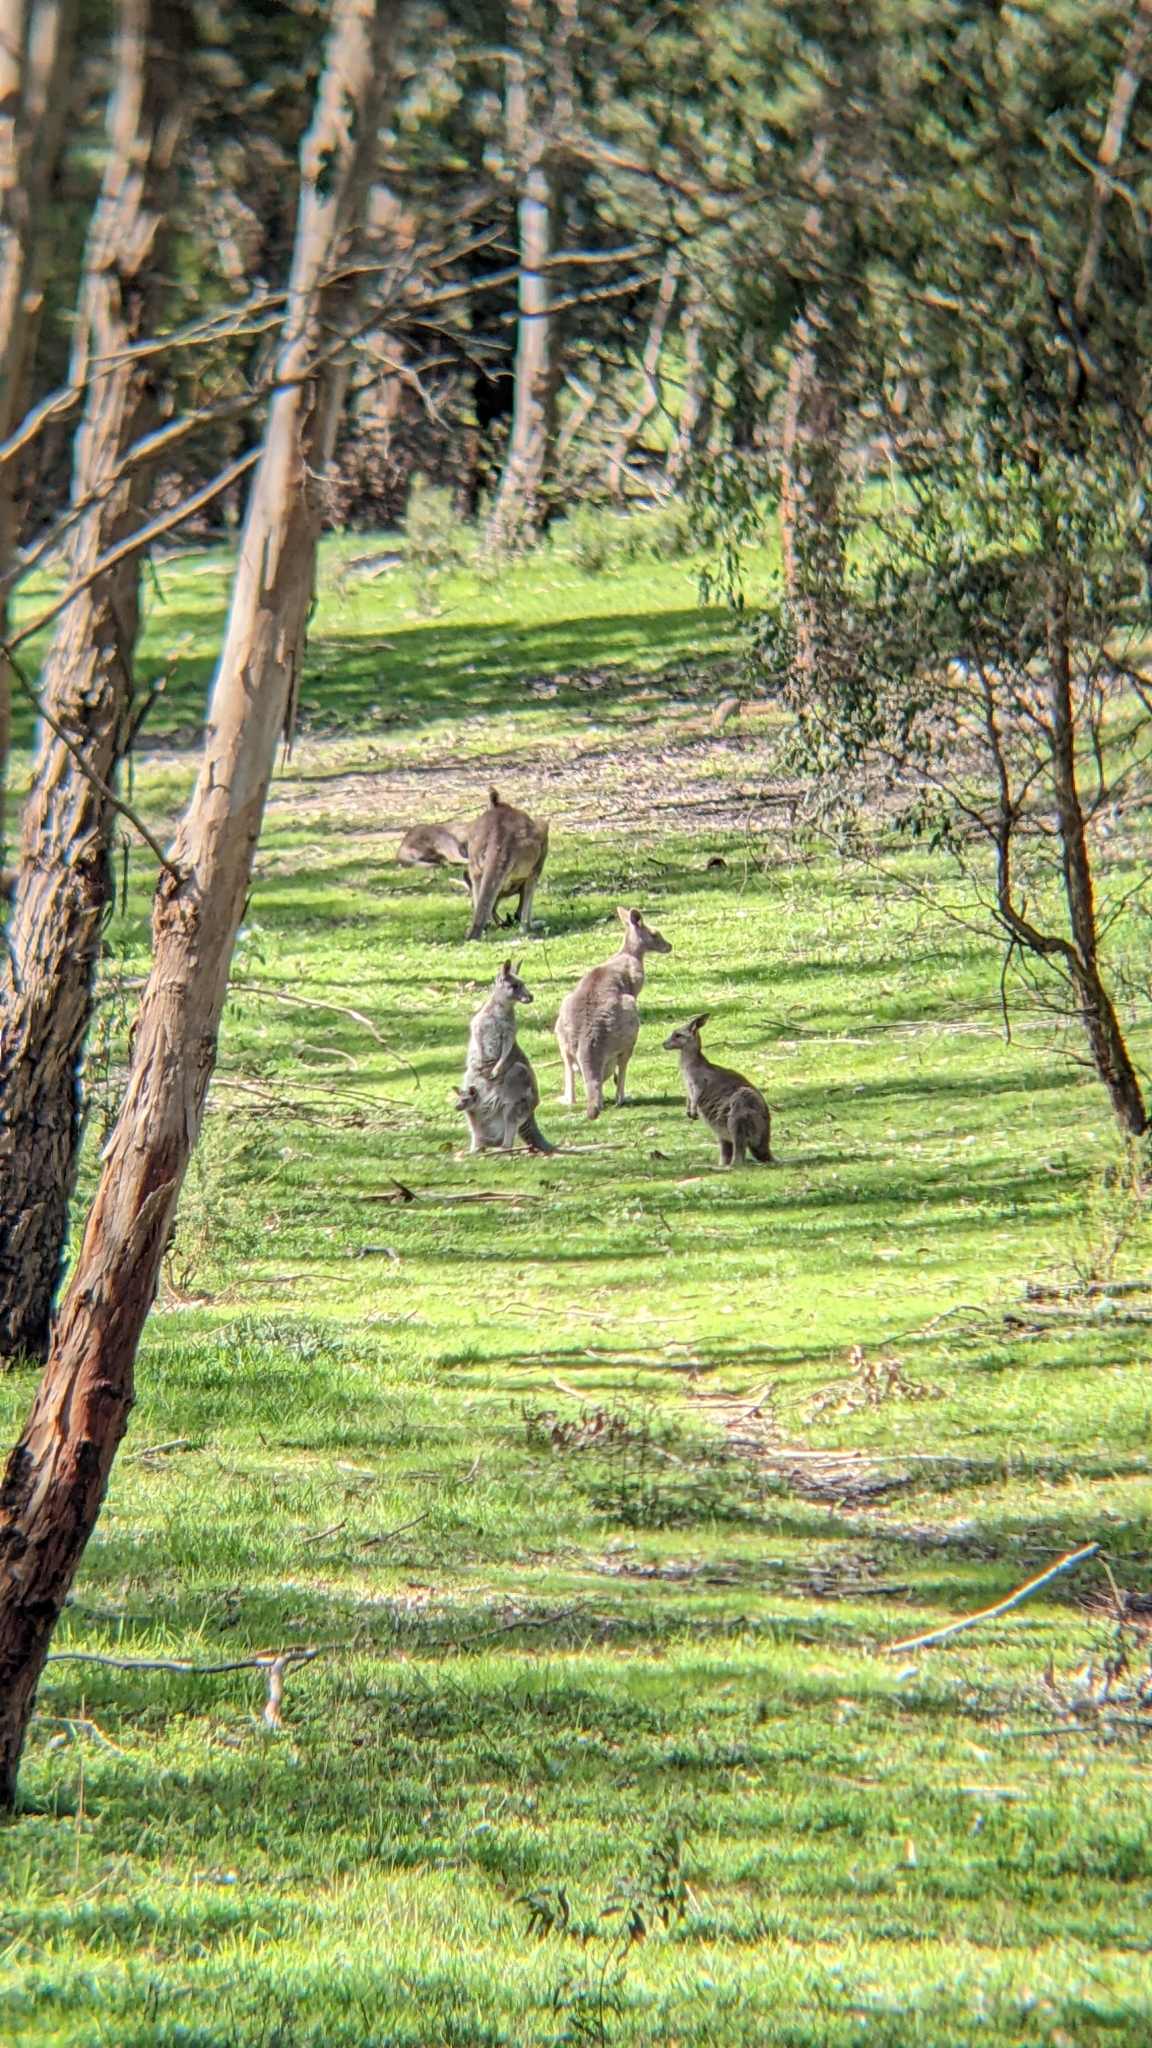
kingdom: Animalia
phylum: Chordata
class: Mammalia
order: Diprotodontia
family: Macropodidae
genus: Macropus
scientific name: Macropus giganteus
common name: Eastern grey kangaroo
